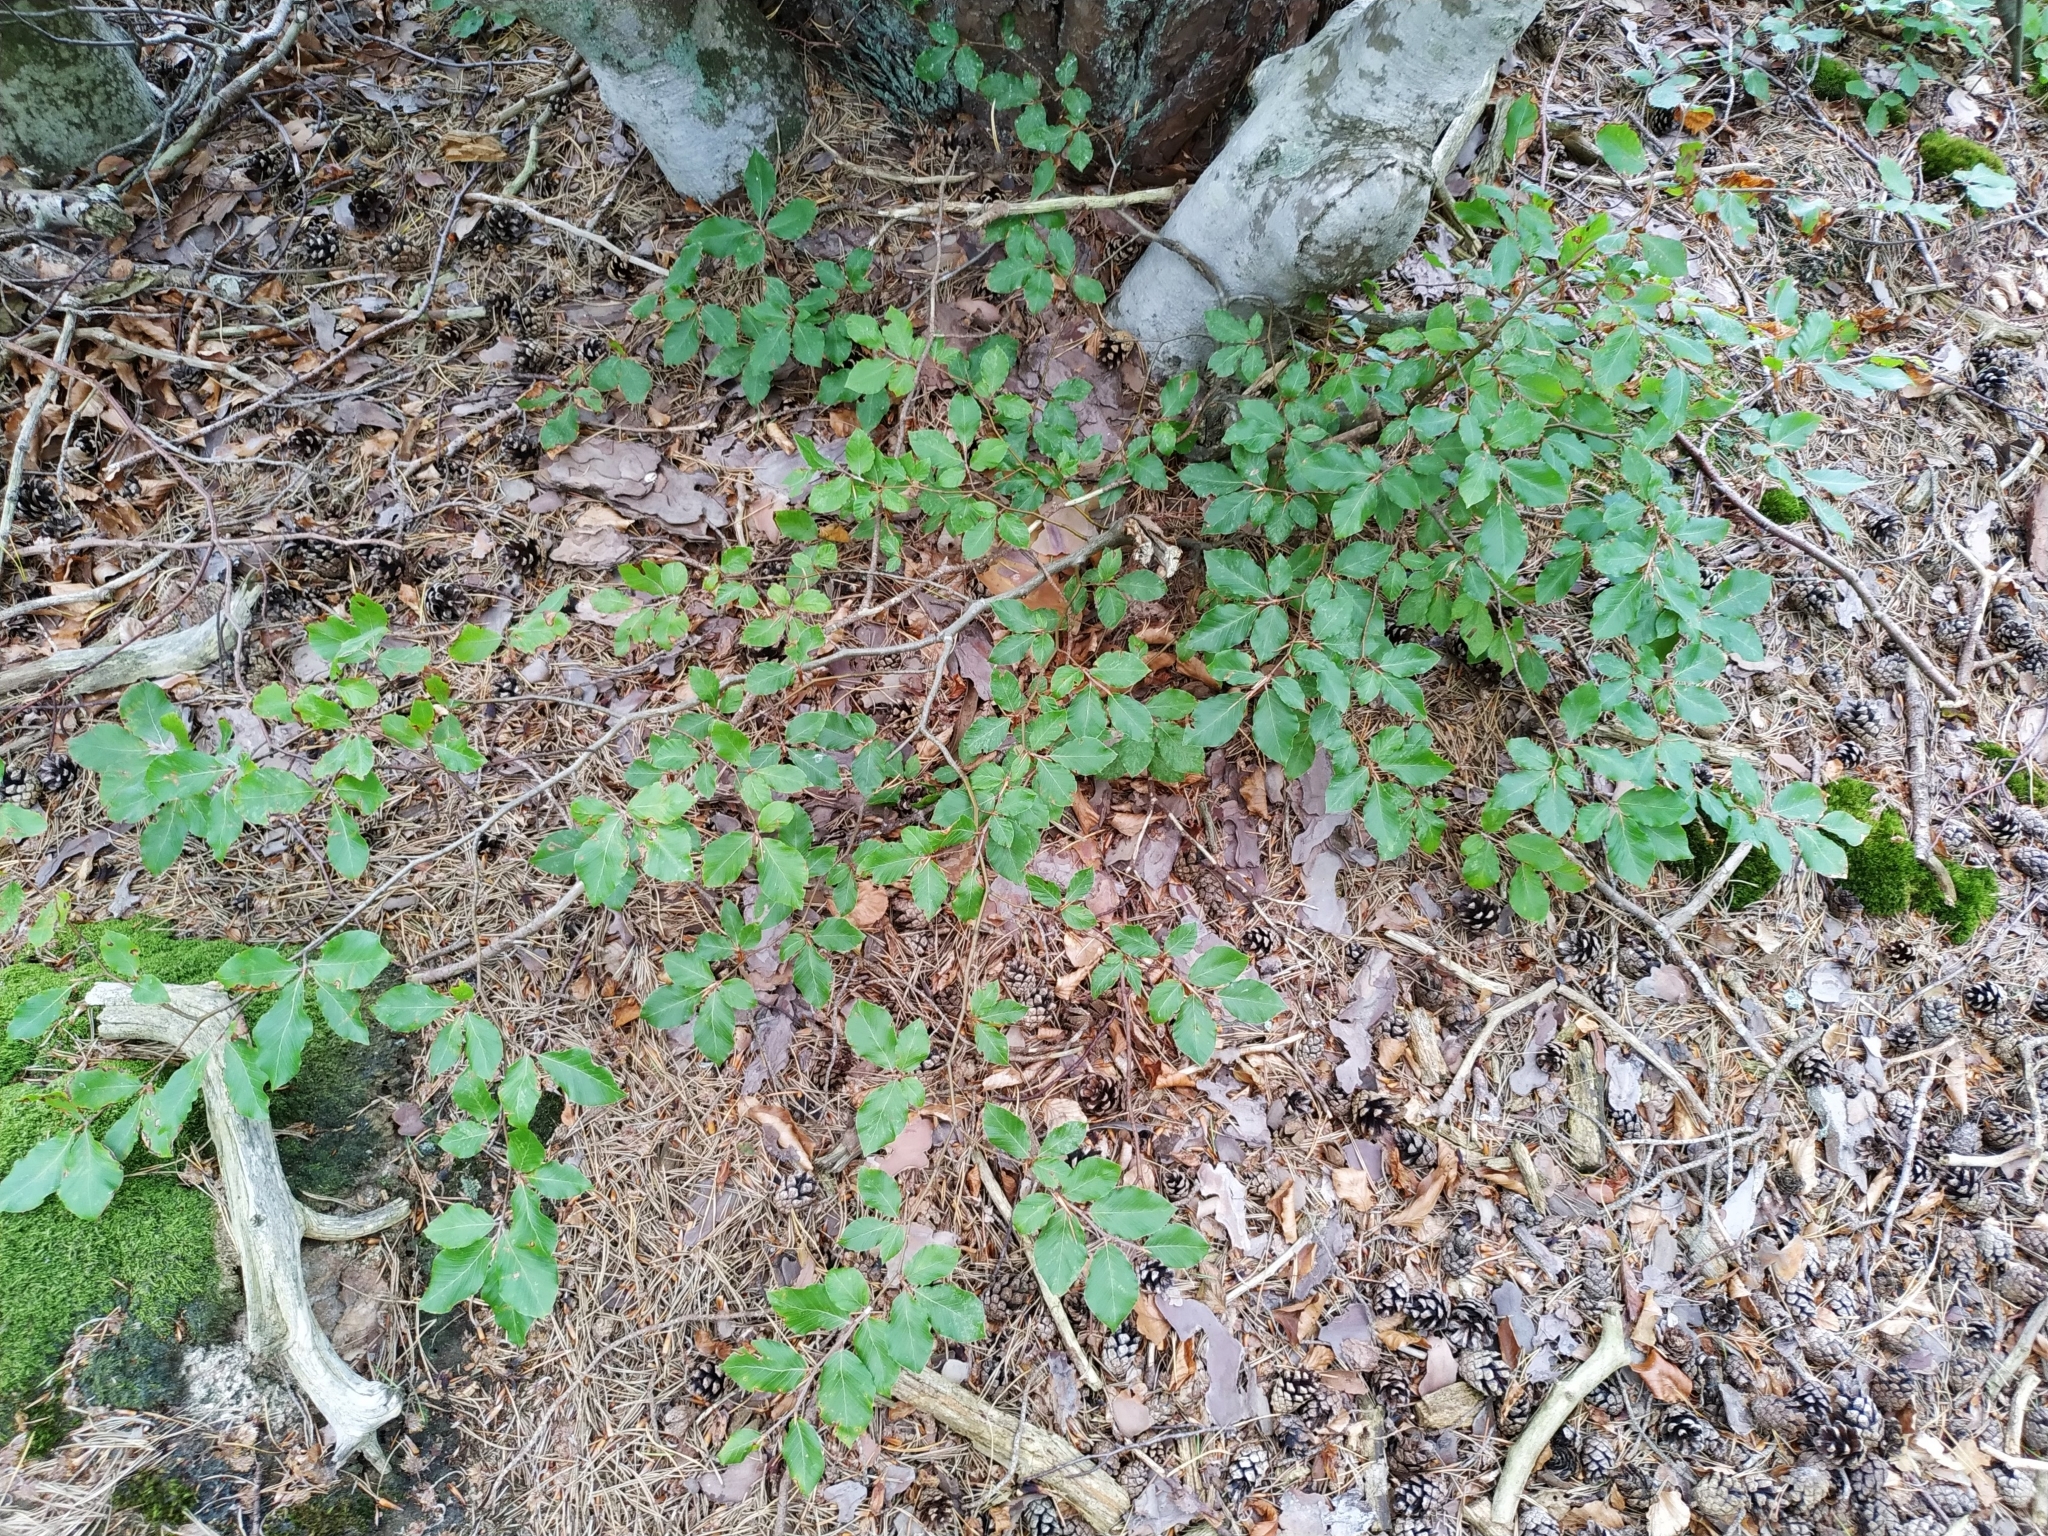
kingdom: Plantae
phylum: Tracheophyta
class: Magnoliopsida
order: Fagales
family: Fagaceae
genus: Fagus
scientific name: Fagus sylvatica
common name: Beech
